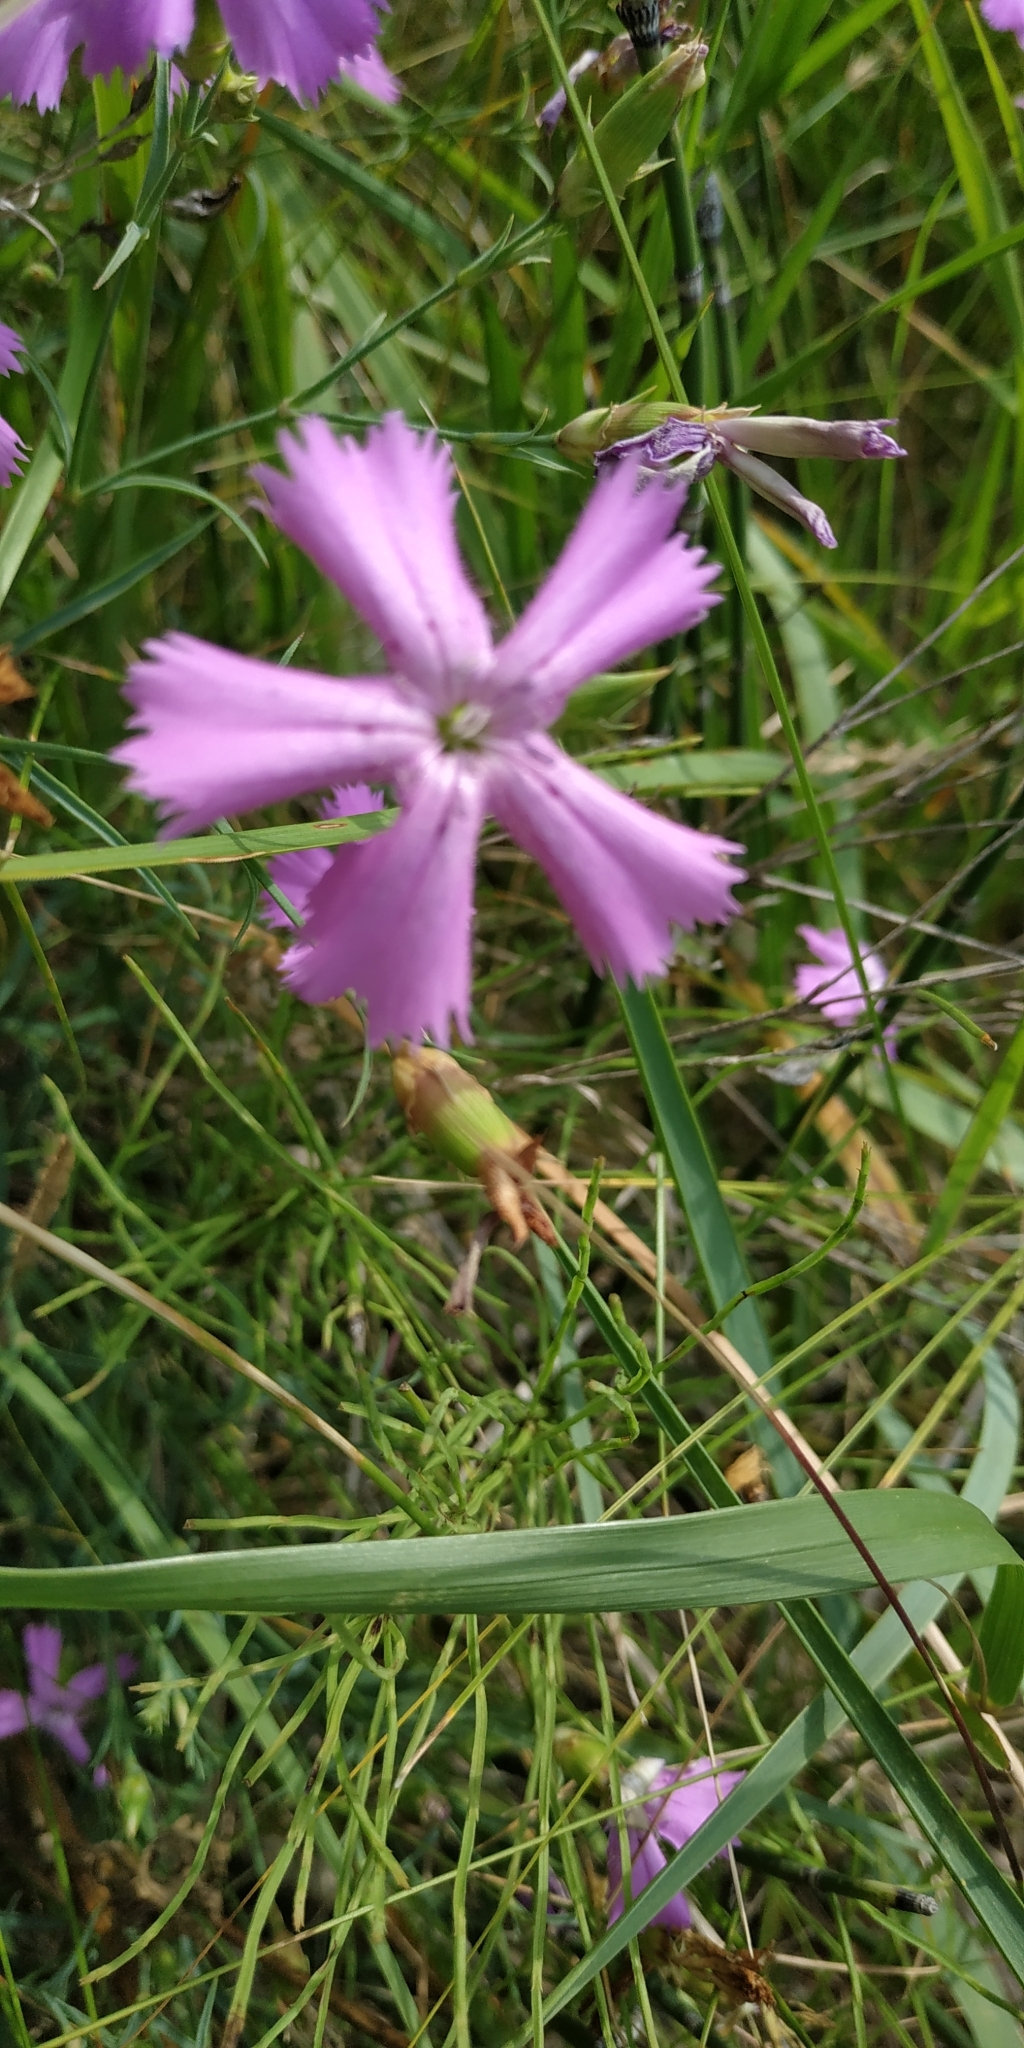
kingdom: Plantae
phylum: Tracheophyta
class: Magnoliopsida
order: Caryophyllales
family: Caryophyllaceae
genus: Dianthus
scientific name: Dianthus chinensis
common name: Rainbow pink
